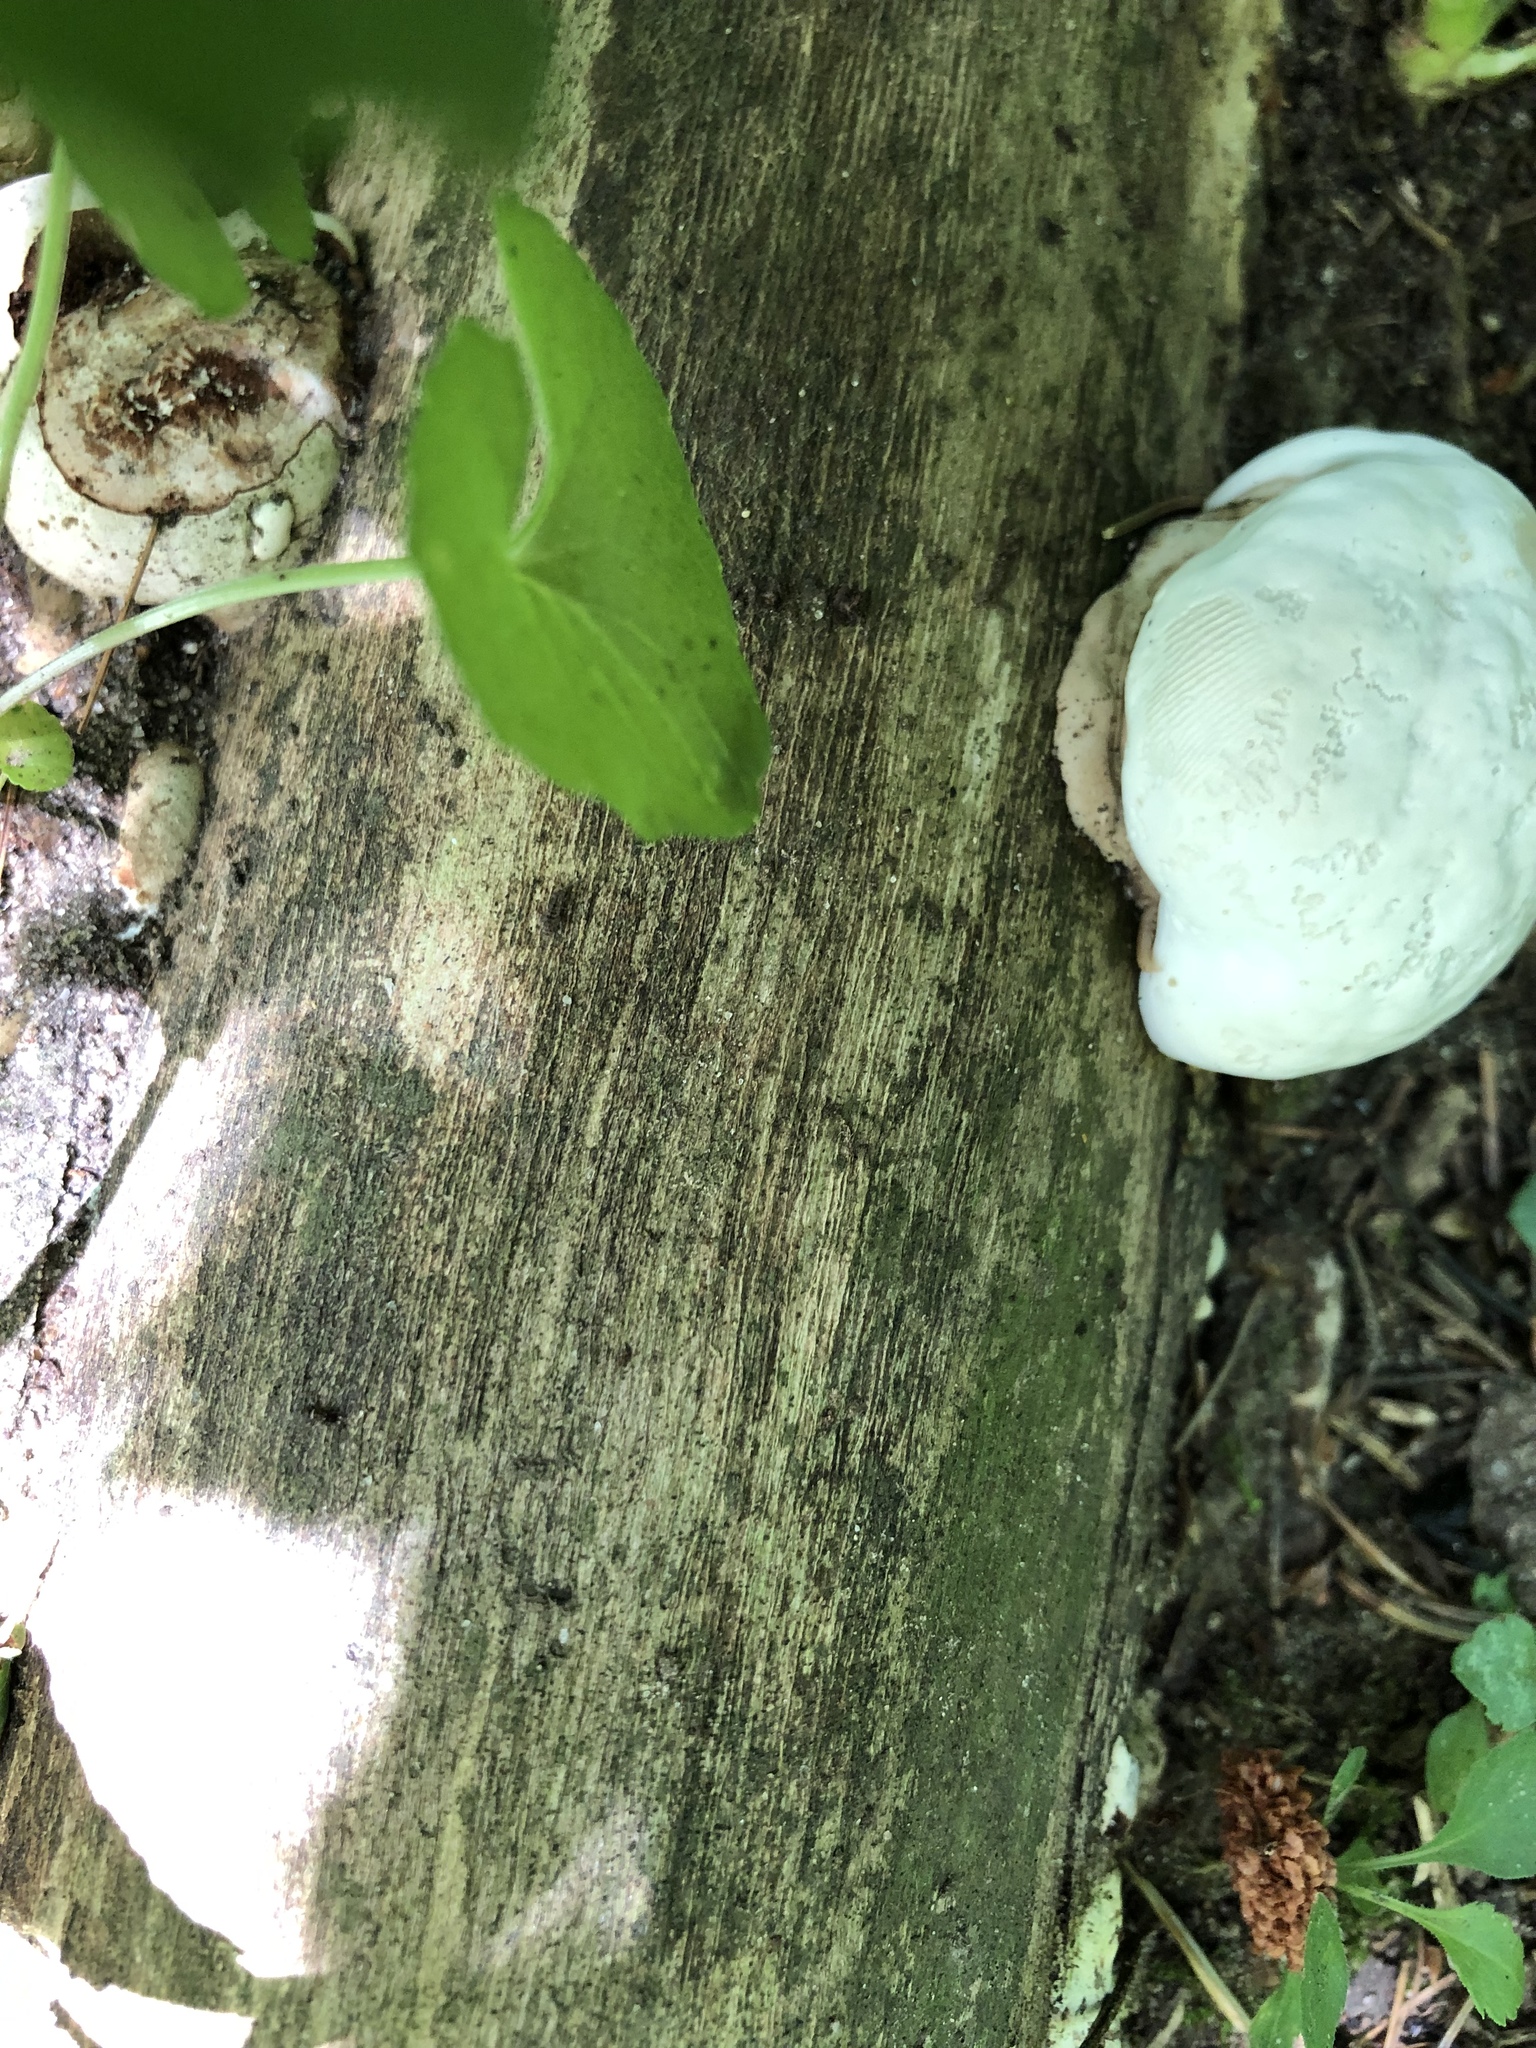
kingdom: Protozoa
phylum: Mycetozoa
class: Myxomycetes
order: Cribrariales
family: Tubiferaceae
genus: Reticularia
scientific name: Reticularia lycoperdon
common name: False puffball
